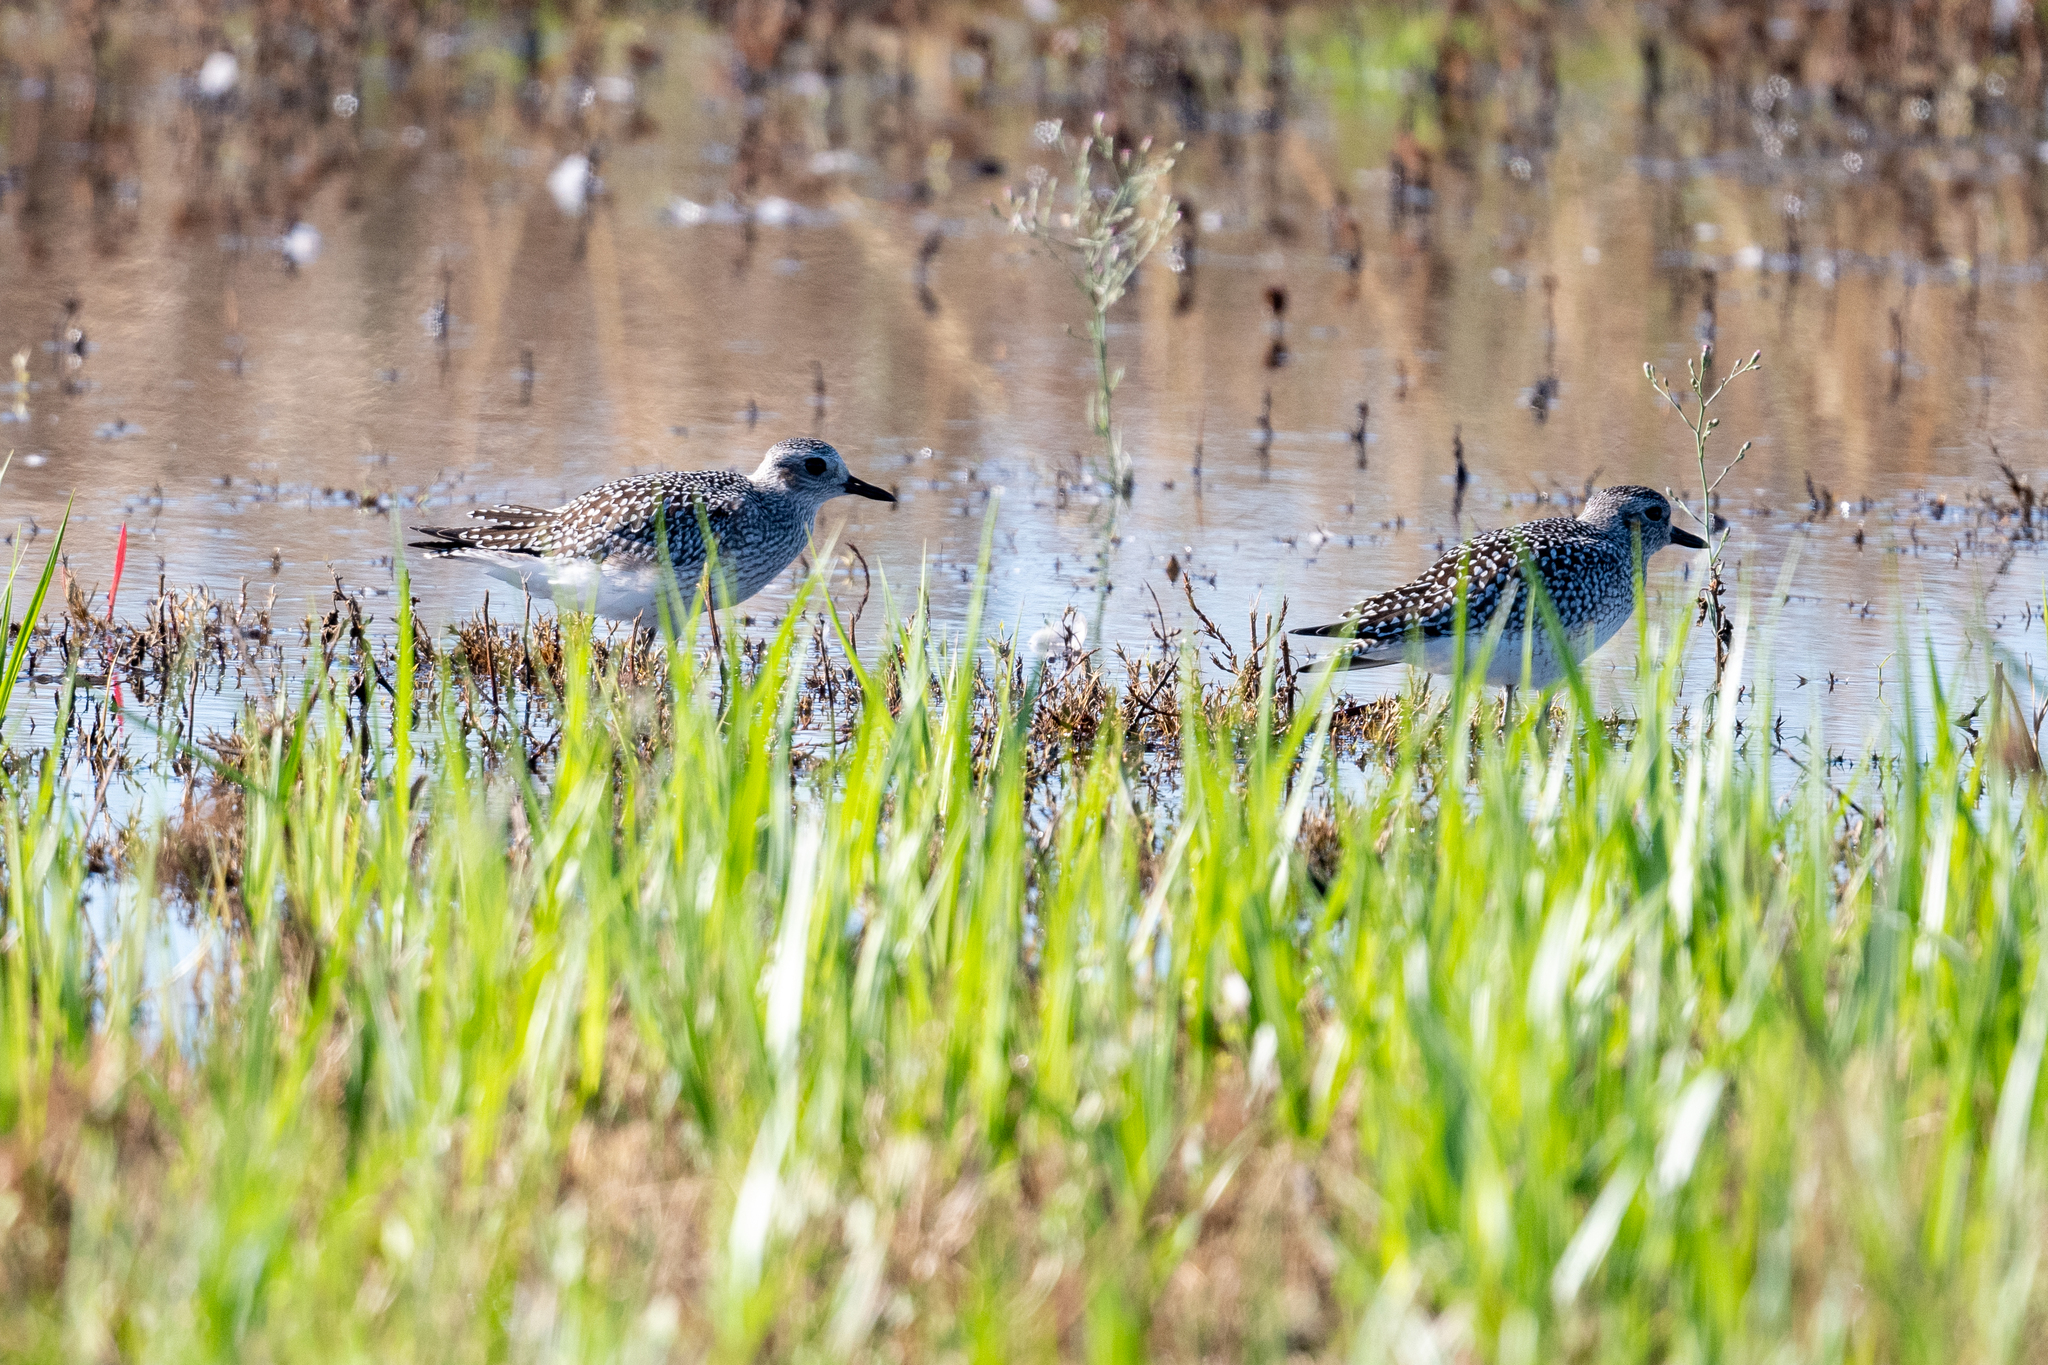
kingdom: Animalia
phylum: Chordata
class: Aves
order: Charadriiformes
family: Charadriidae
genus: Pluvialis
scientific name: Pluvialis squatarola
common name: Grey plover
